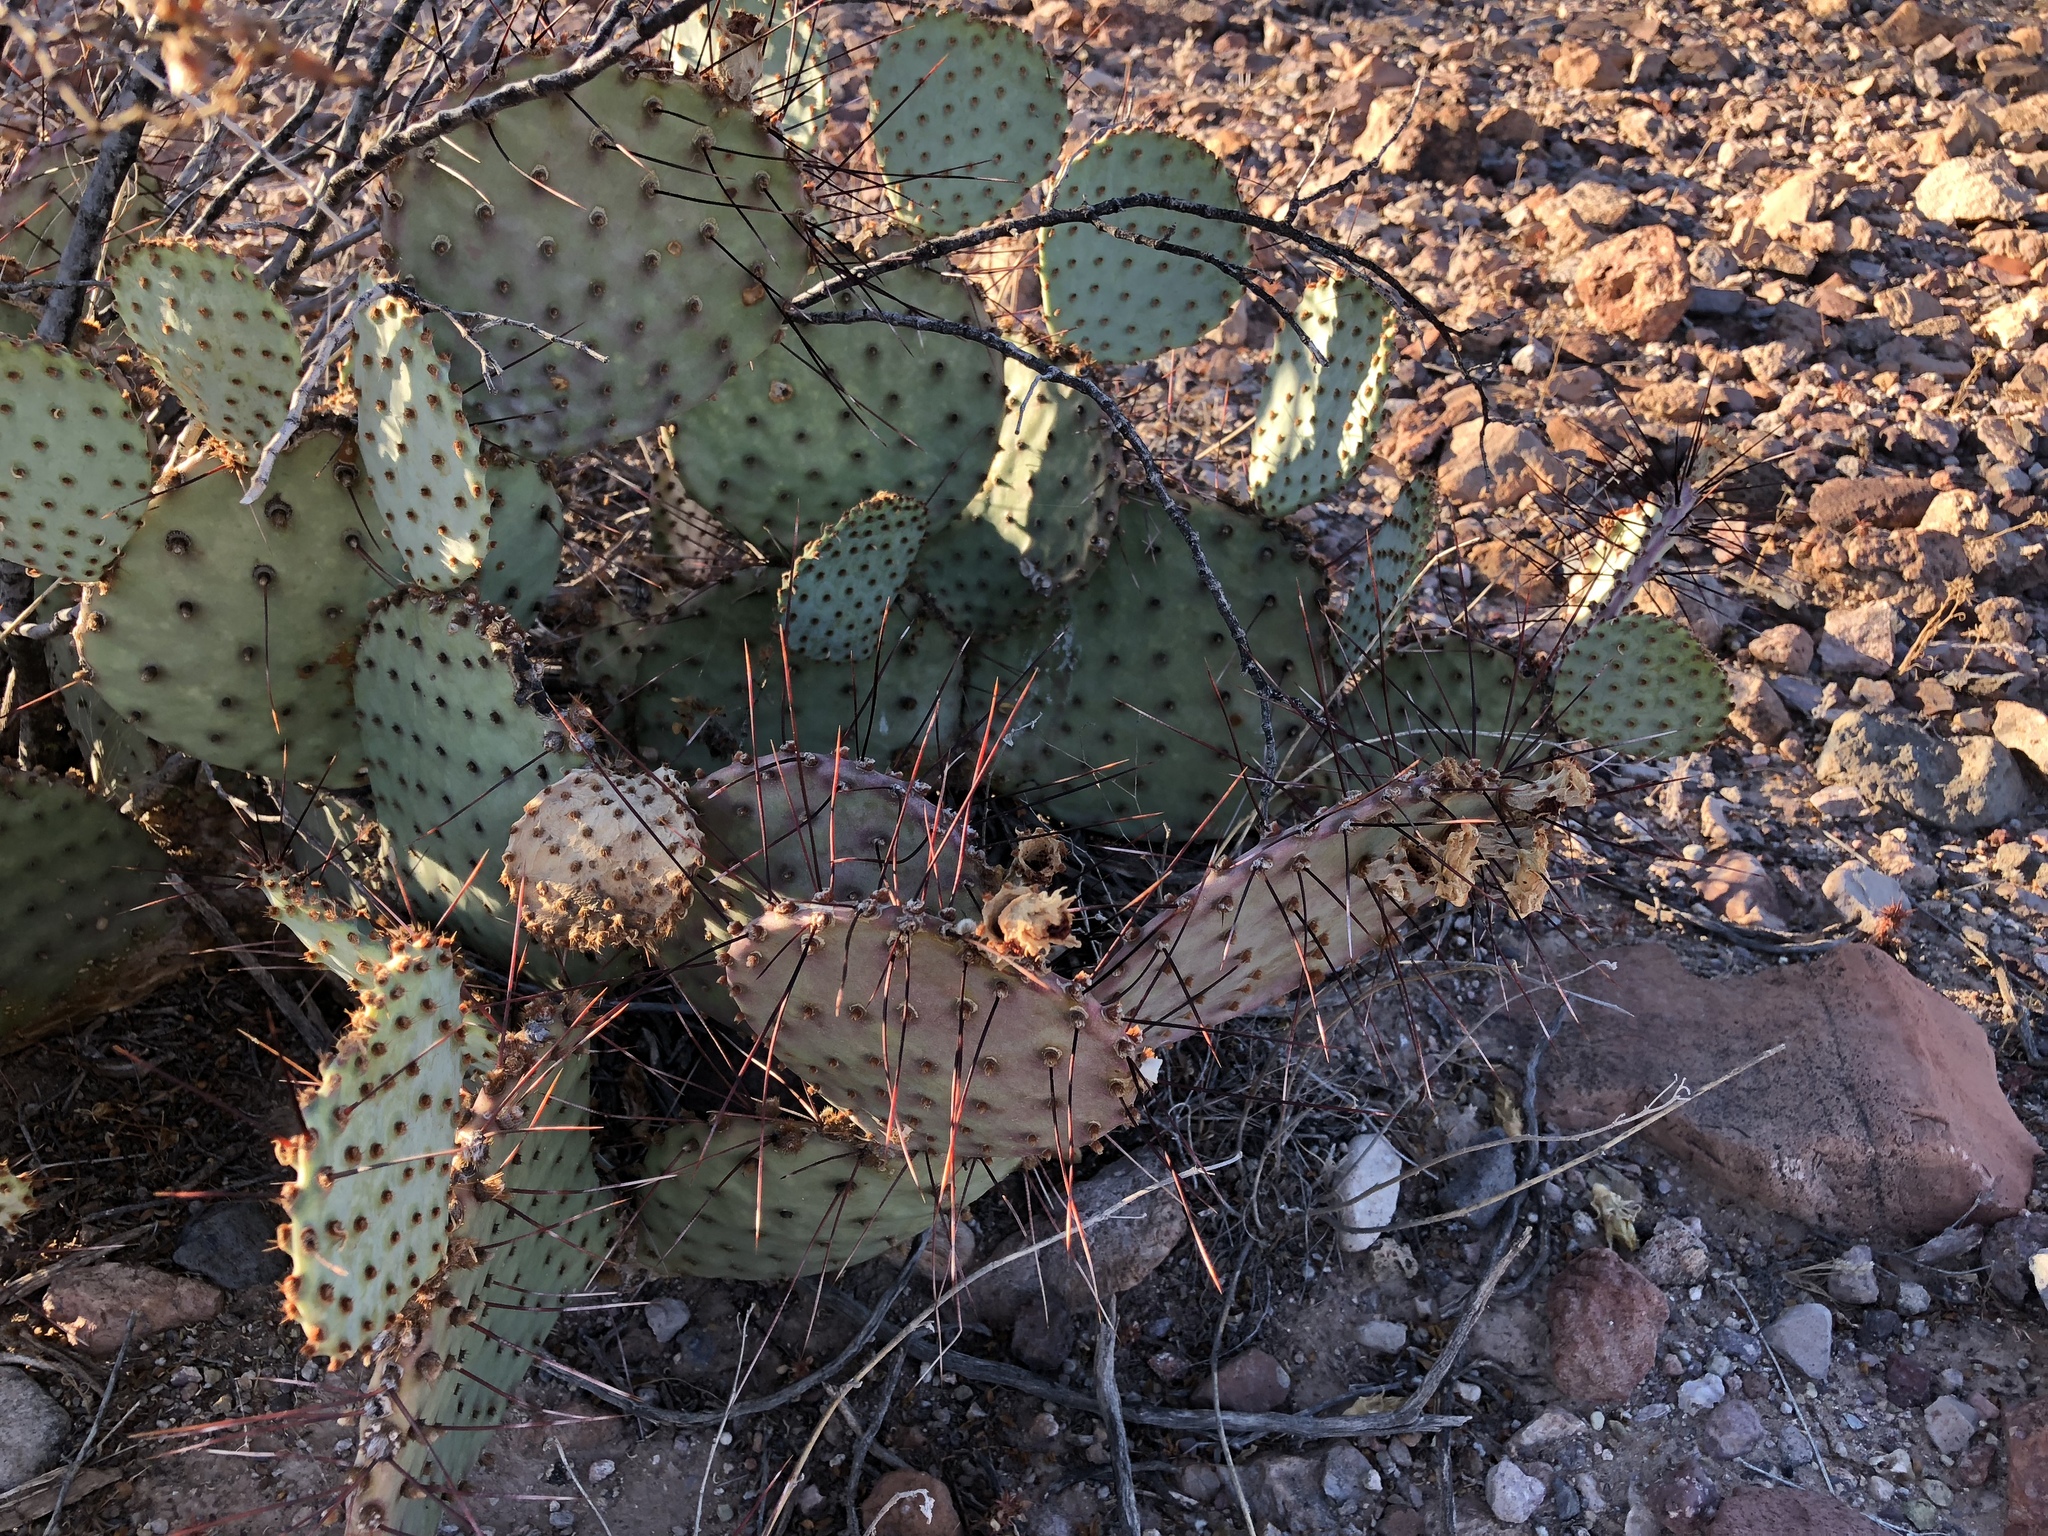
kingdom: Plantae
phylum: Tracheophyta
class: Magnoliopsida
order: Caryophyllales
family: Cactaceae
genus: Opuntia
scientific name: Opuntia macrocentra
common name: Purple prickly-pear
